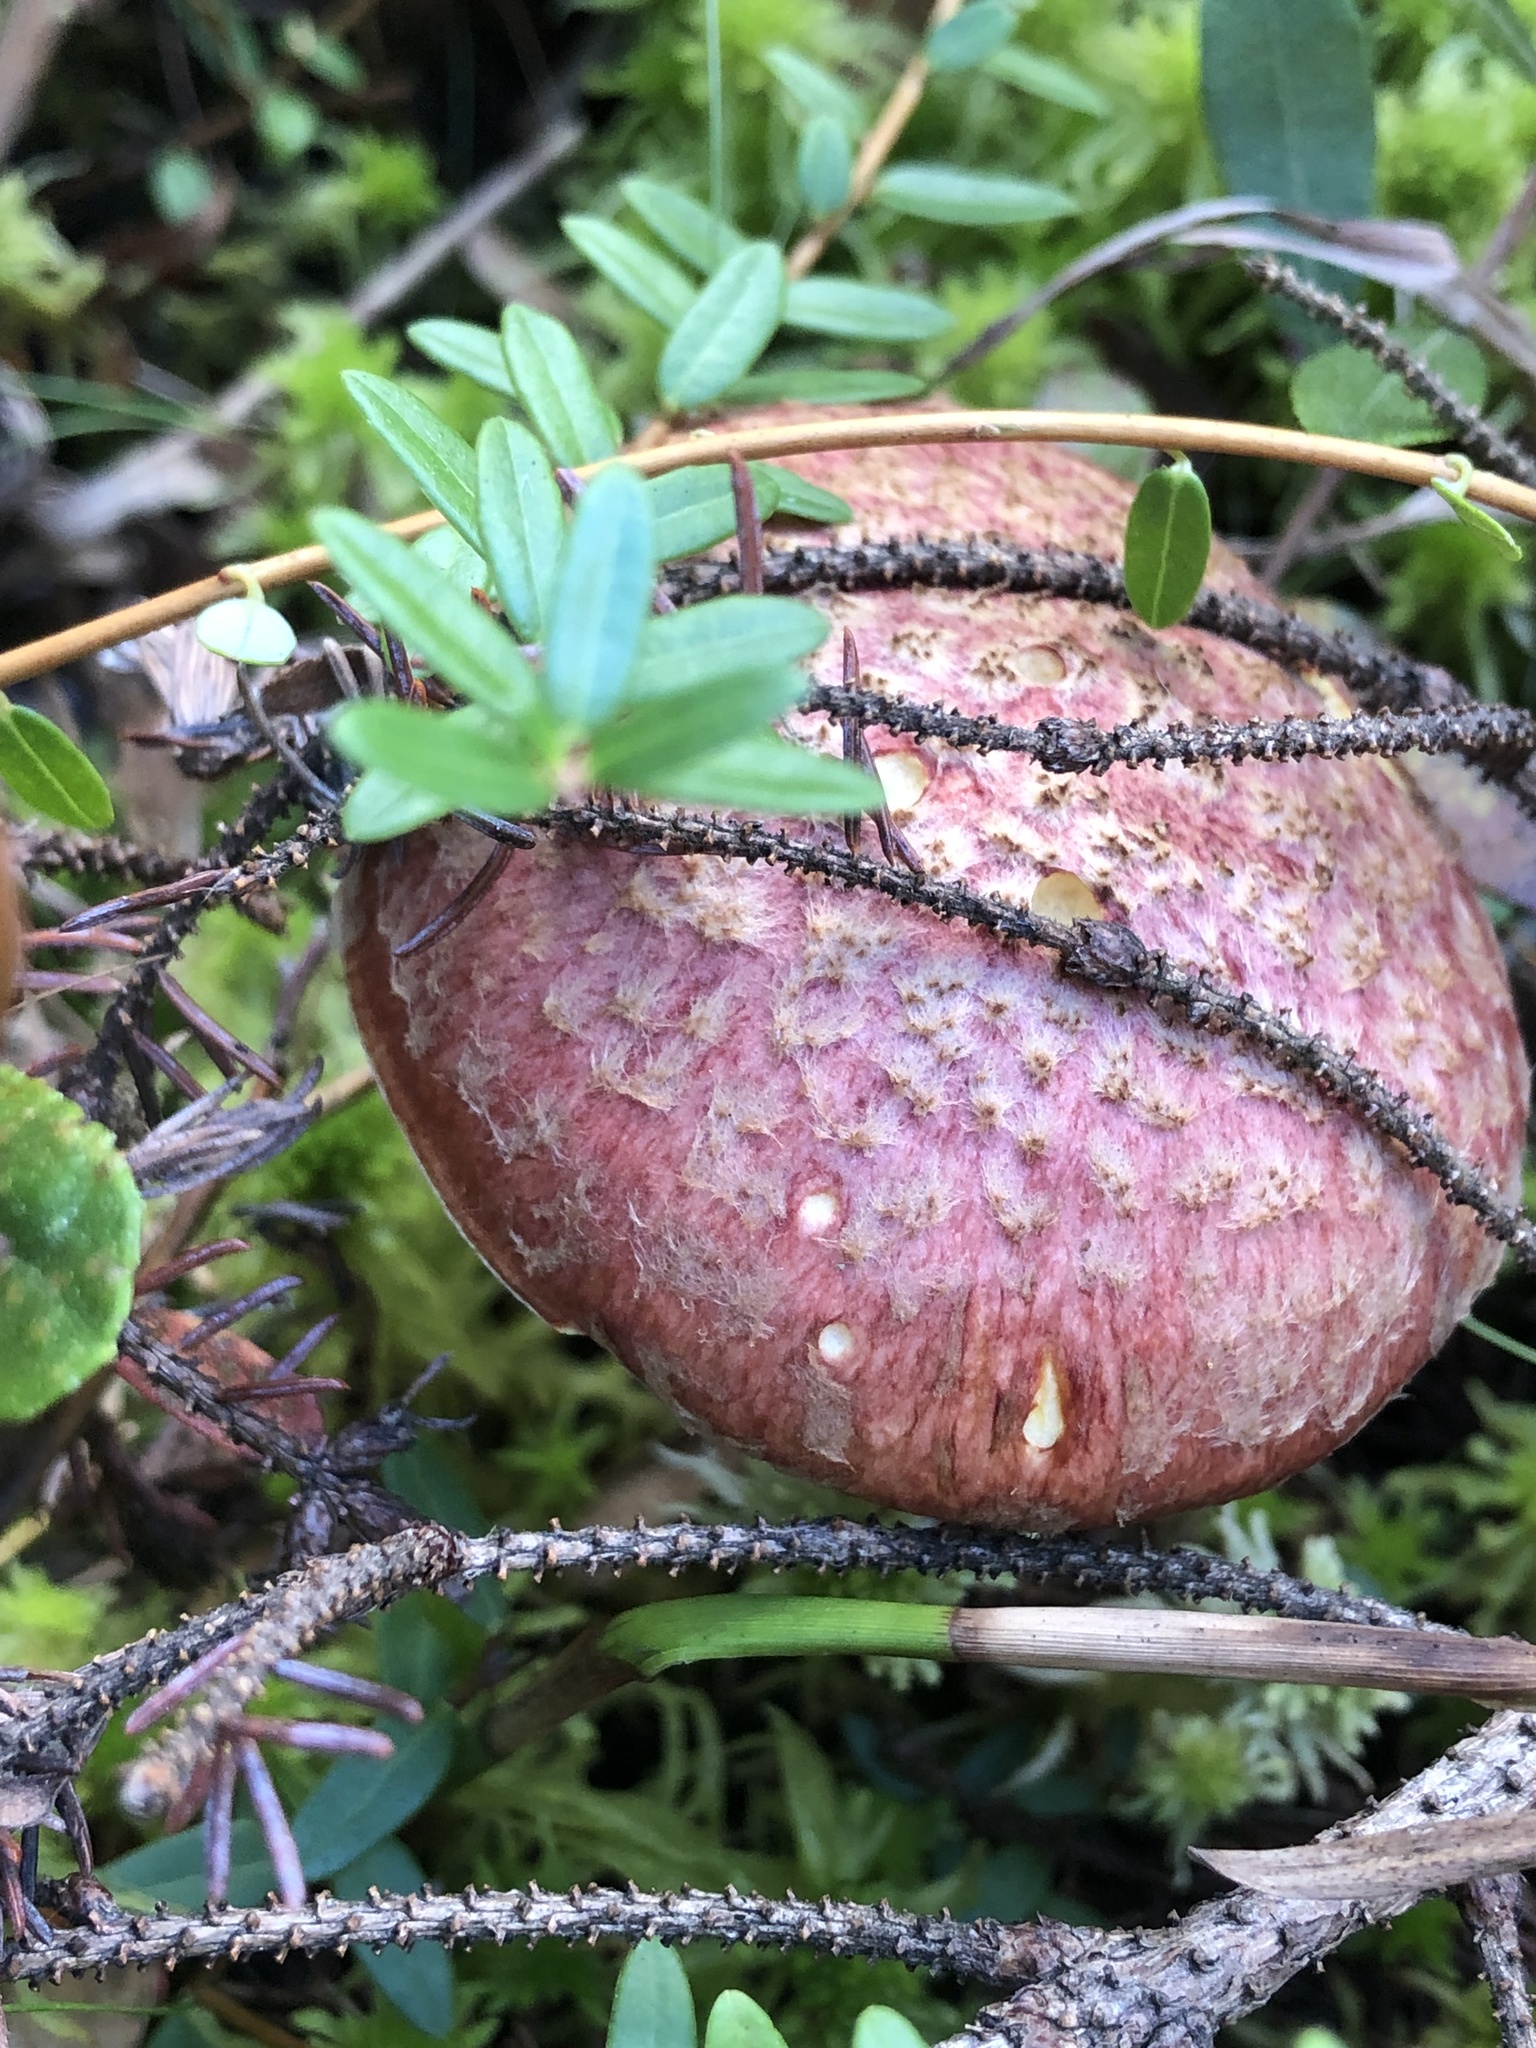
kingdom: Fungi
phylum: Basidiomycota
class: Agaricomycetes
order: Boletales
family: Suillaceae
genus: Suillus
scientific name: Suillus spraguei
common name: Painted suillus
